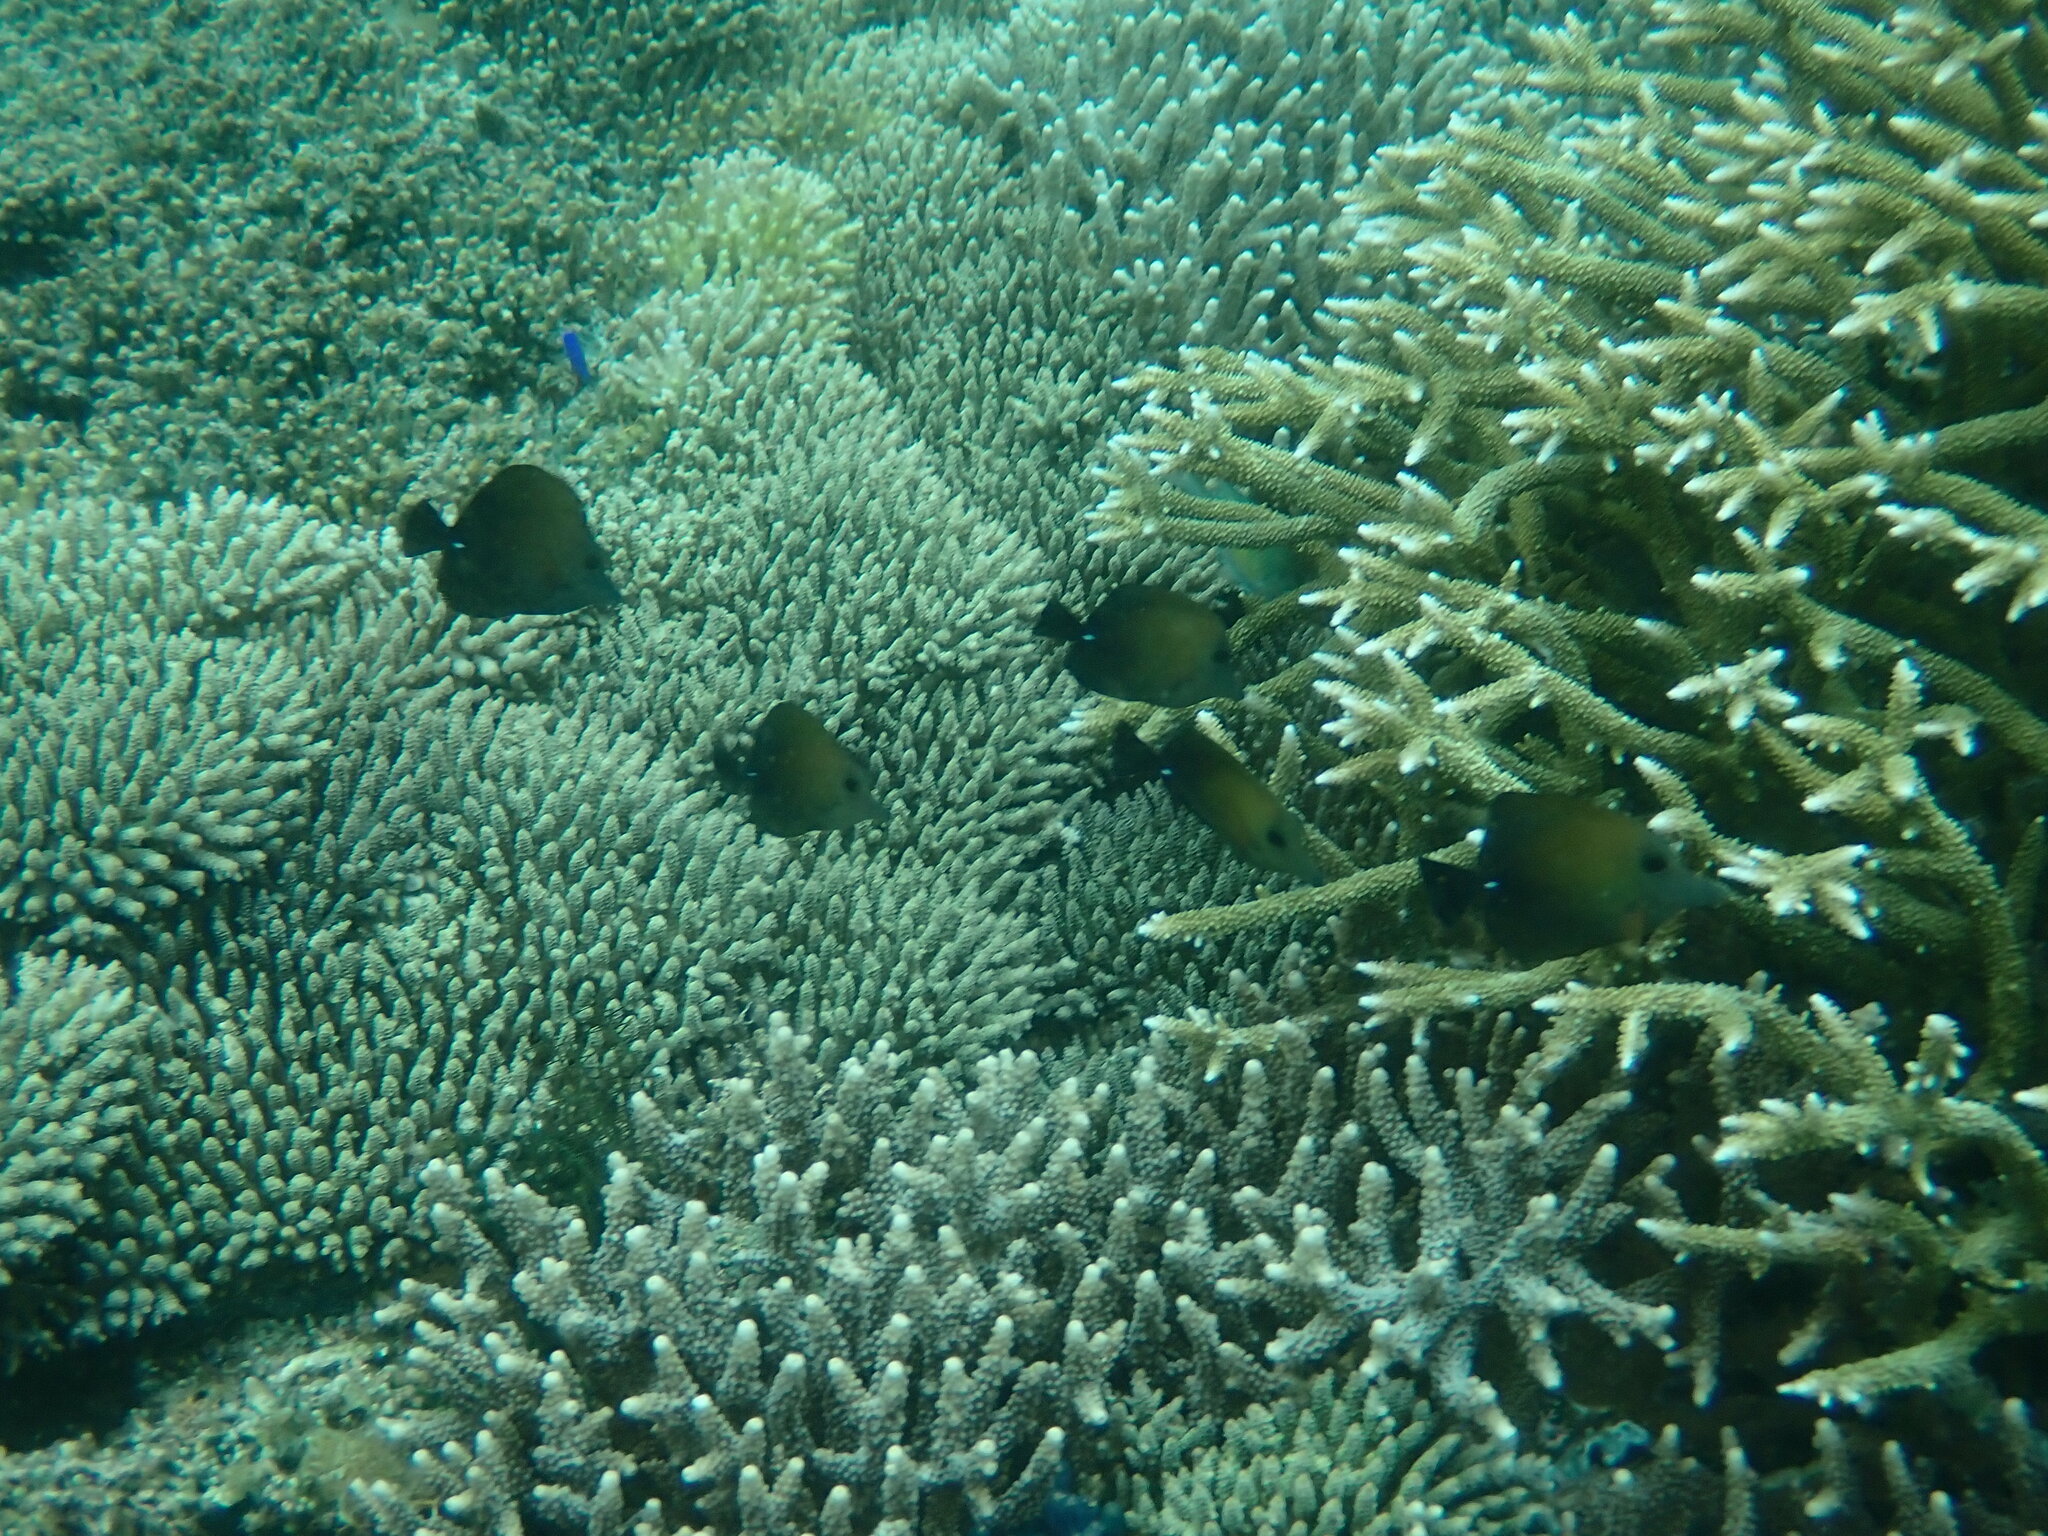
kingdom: Animalia
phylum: Chordata
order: Perciformes
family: Acanthuridae
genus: Zebrasoma
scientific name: Zebrasoma scopas
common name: Twotone tang
